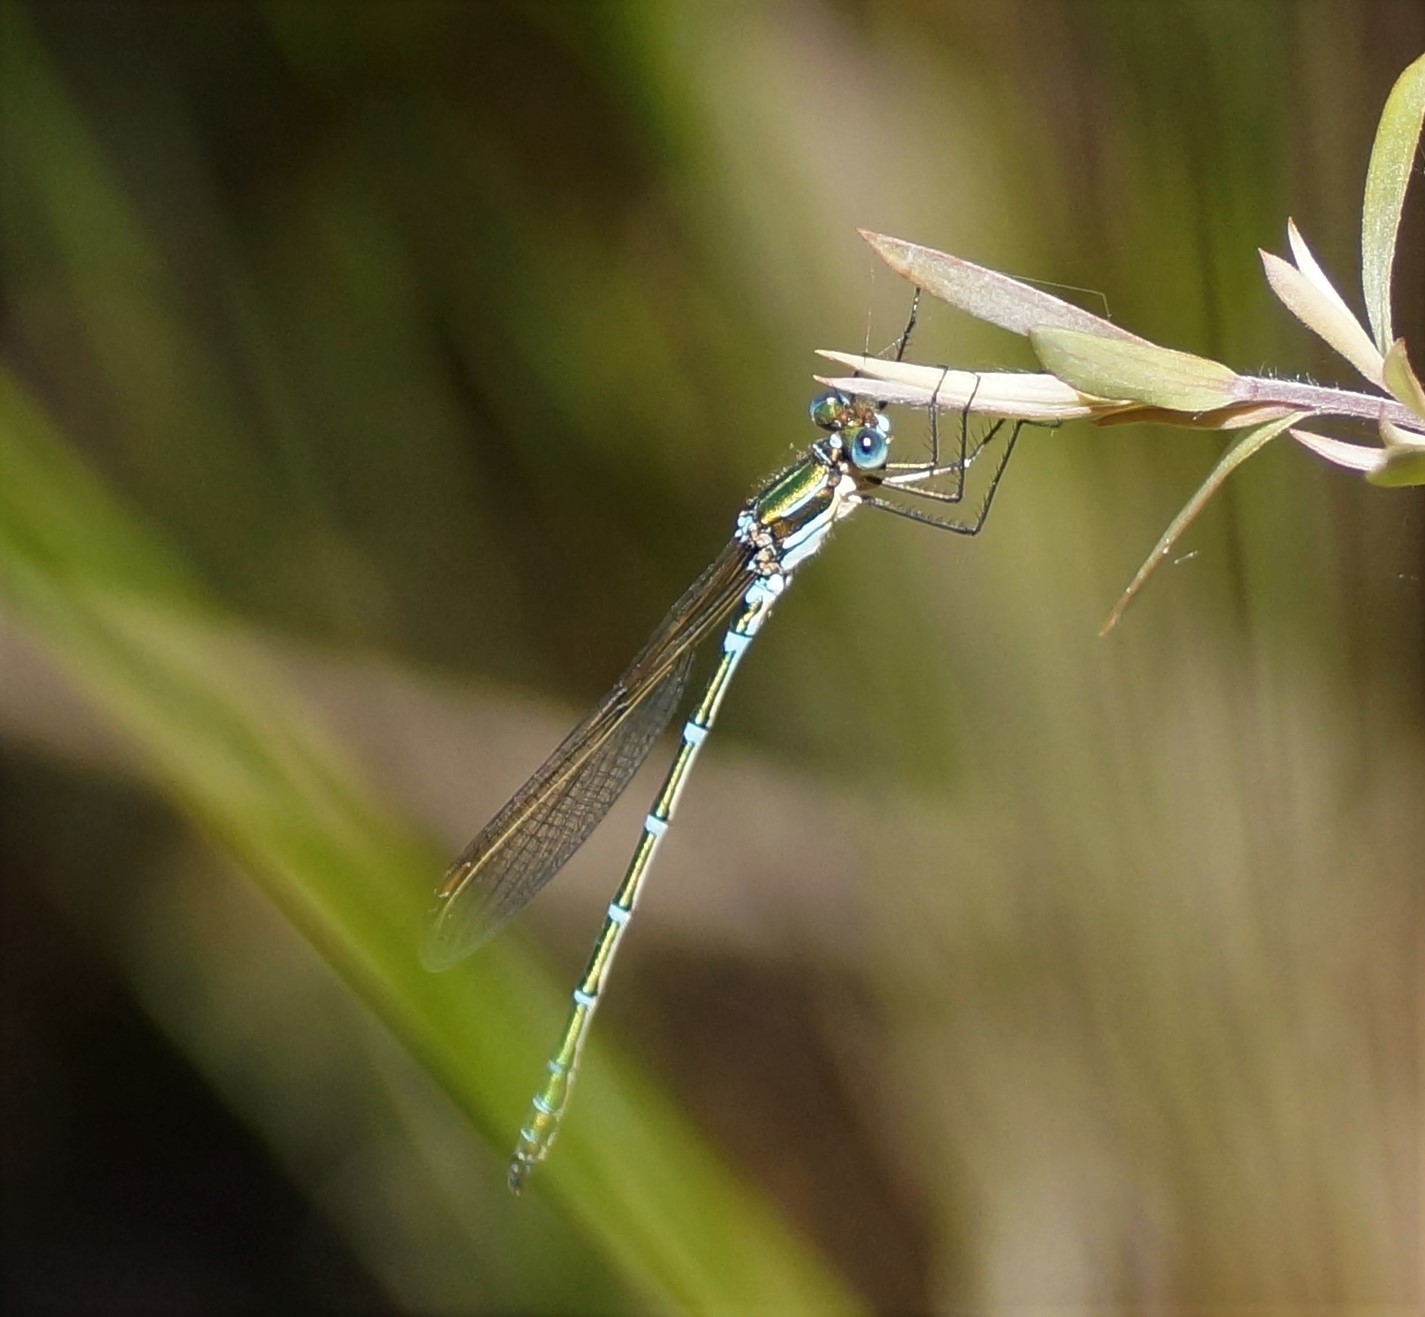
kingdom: Animalia
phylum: Arthropoda
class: Insecta
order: Odonata
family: Lestidae
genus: Austrolestes
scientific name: Austrolestes cingulatus
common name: Metallic ringtail
